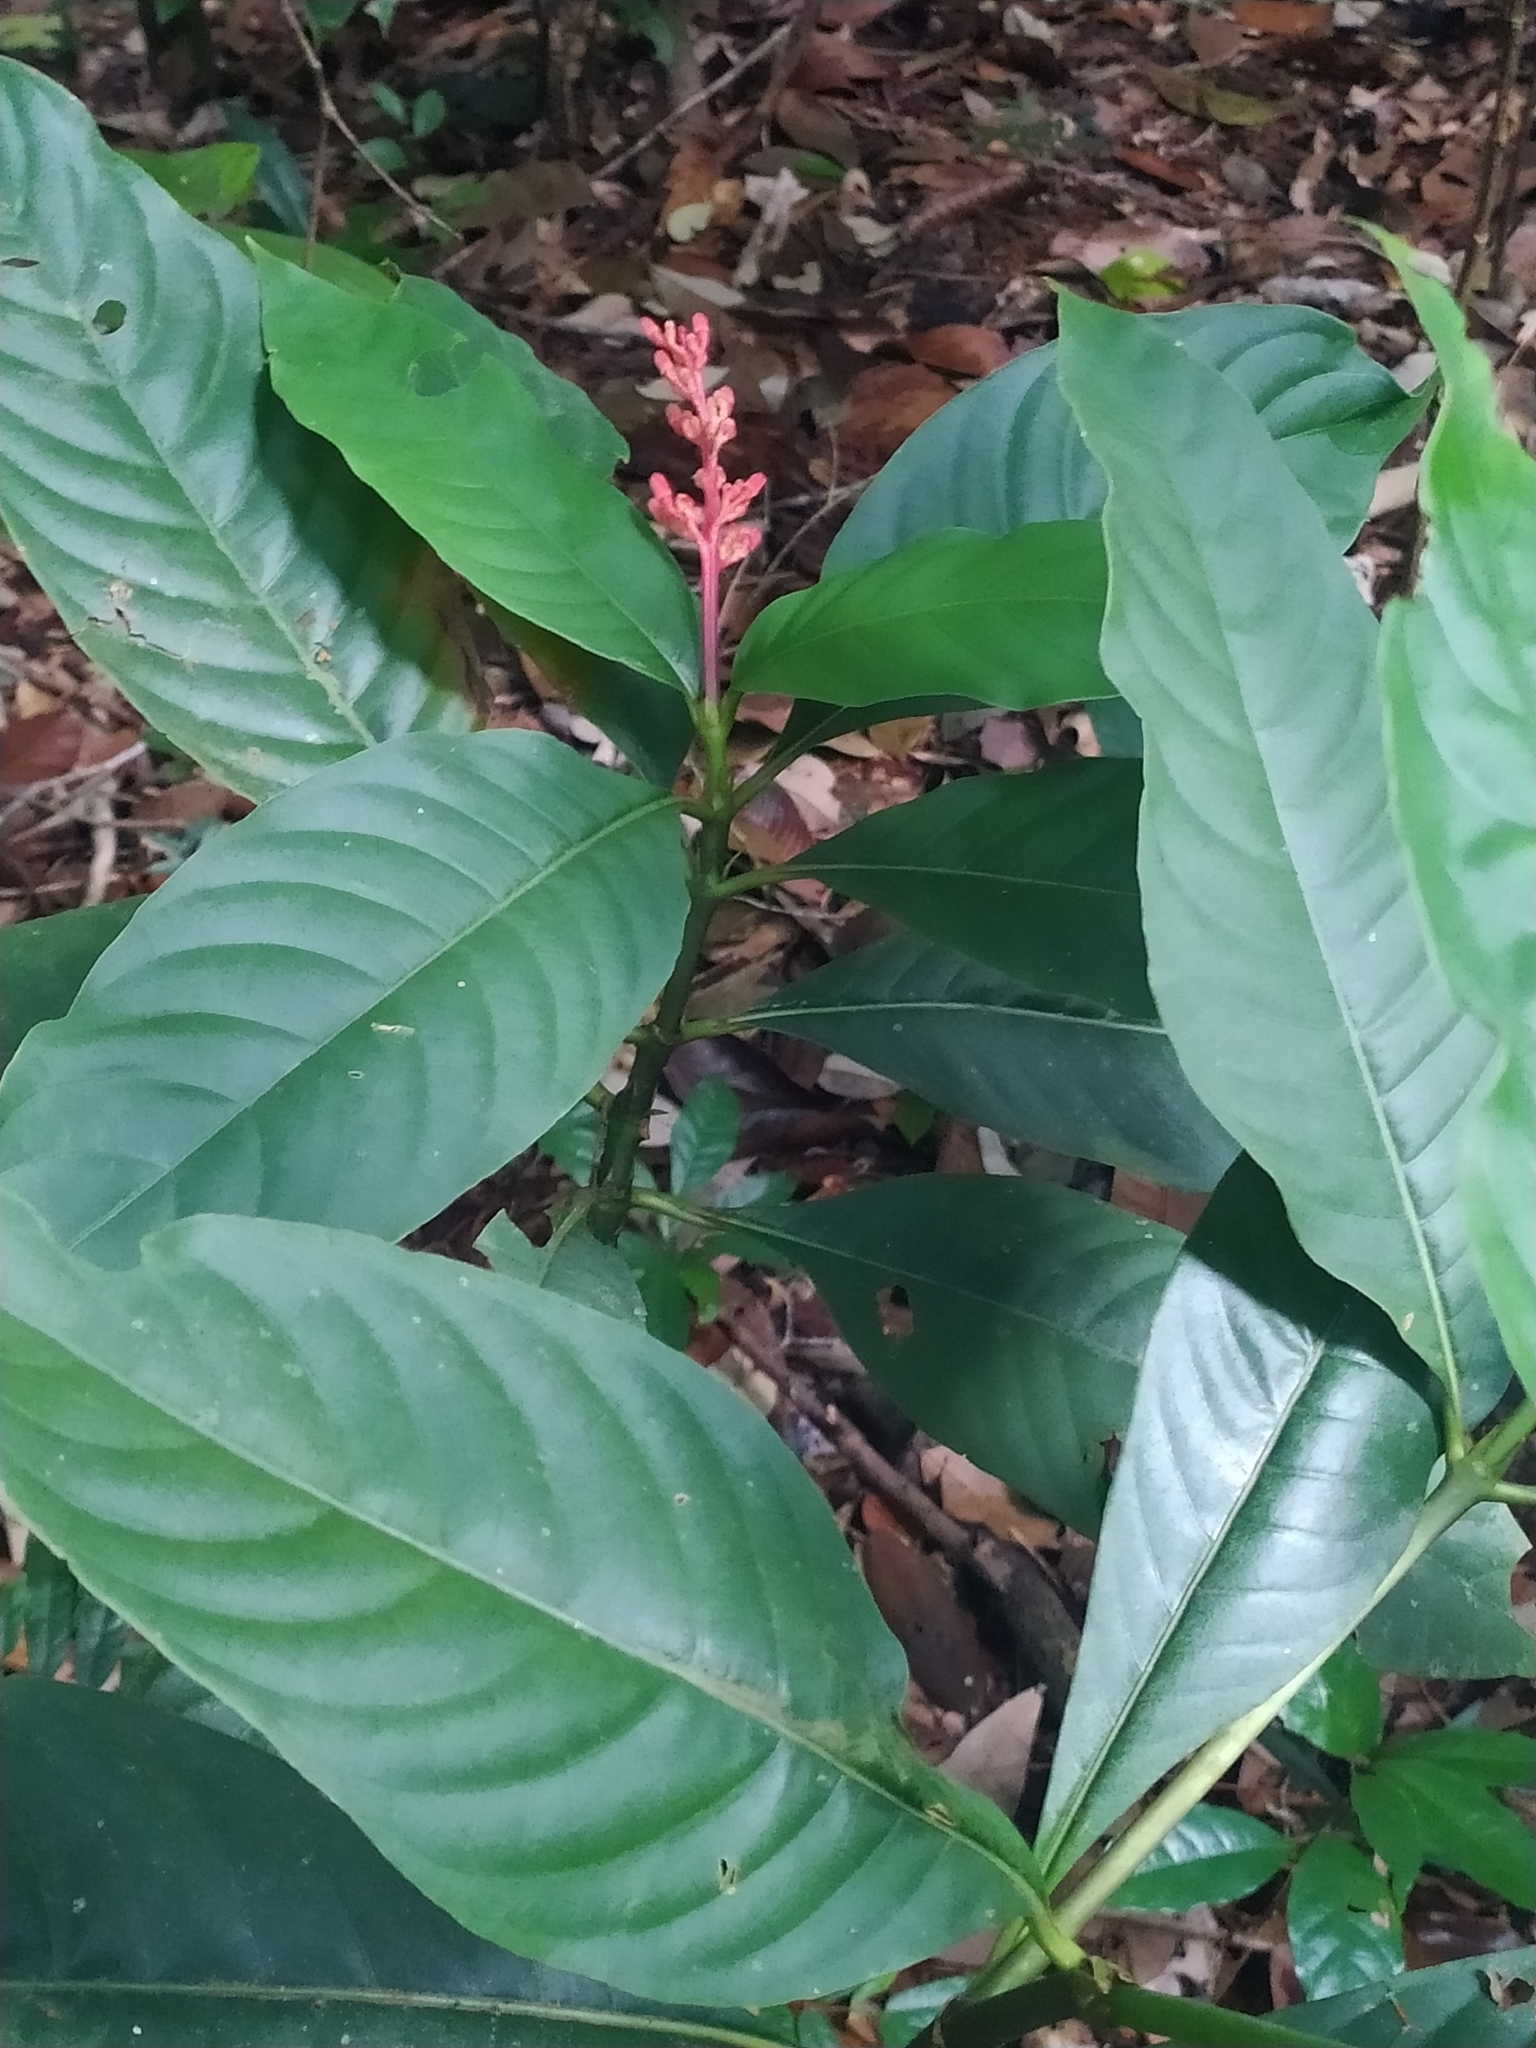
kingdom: Plantae
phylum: Tracheophyta
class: Magnoliopsida
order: Gentianales
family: Rubiaceae
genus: Palicourea
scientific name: Palicourea calophylla
